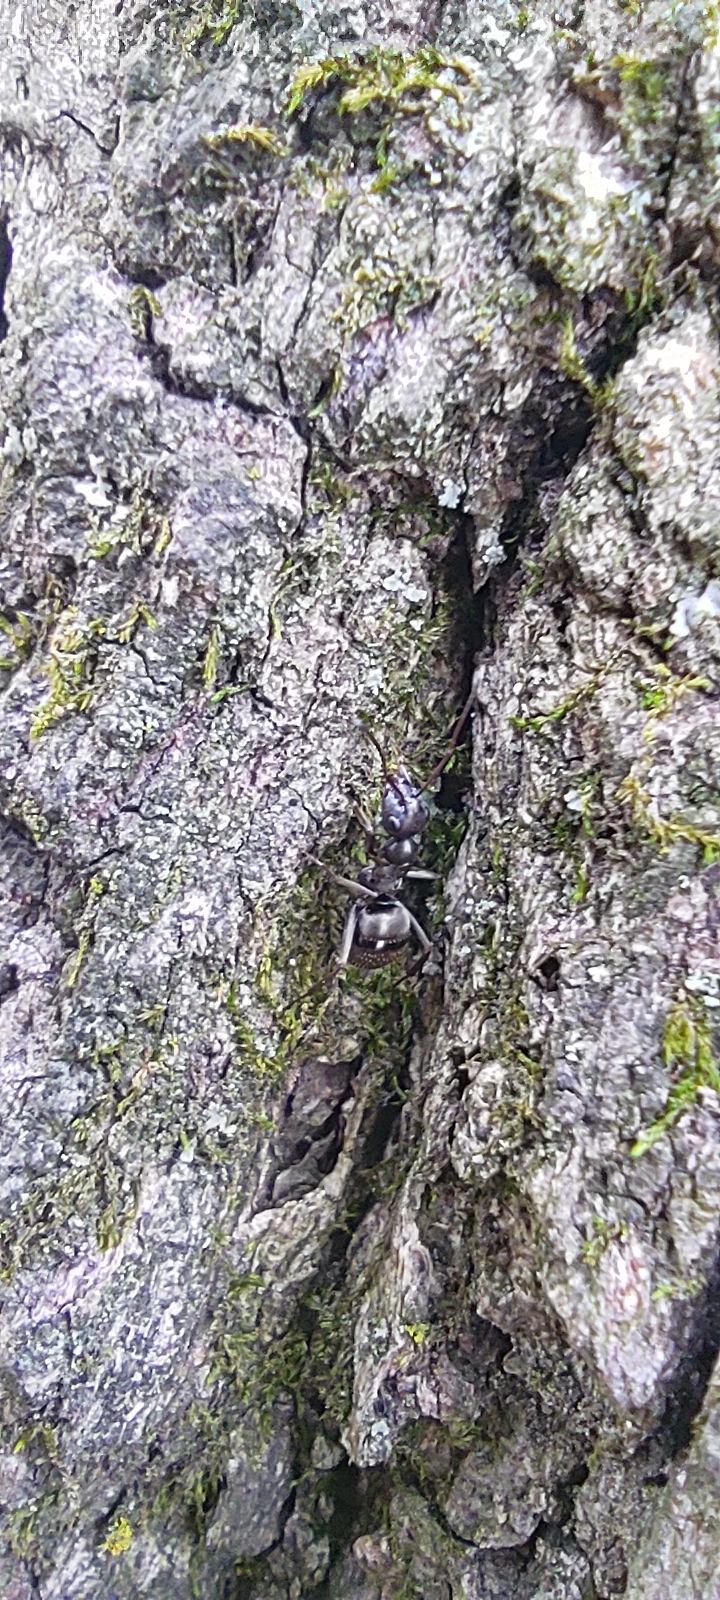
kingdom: Animalia
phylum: Arthropoda
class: Insecta
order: Hymenoptera
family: Formicidae
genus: Formica
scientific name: Formica
